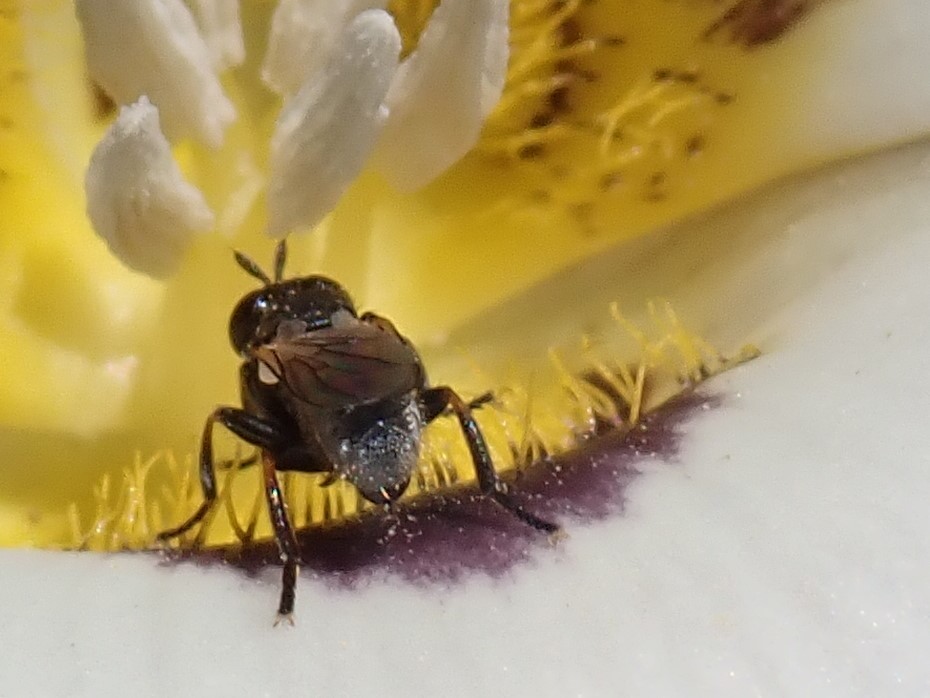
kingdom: Animalia
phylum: Arthropoda
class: Insecta
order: Hymenoptera
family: Colletidae
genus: Hylaeus
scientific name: Hylaeus
